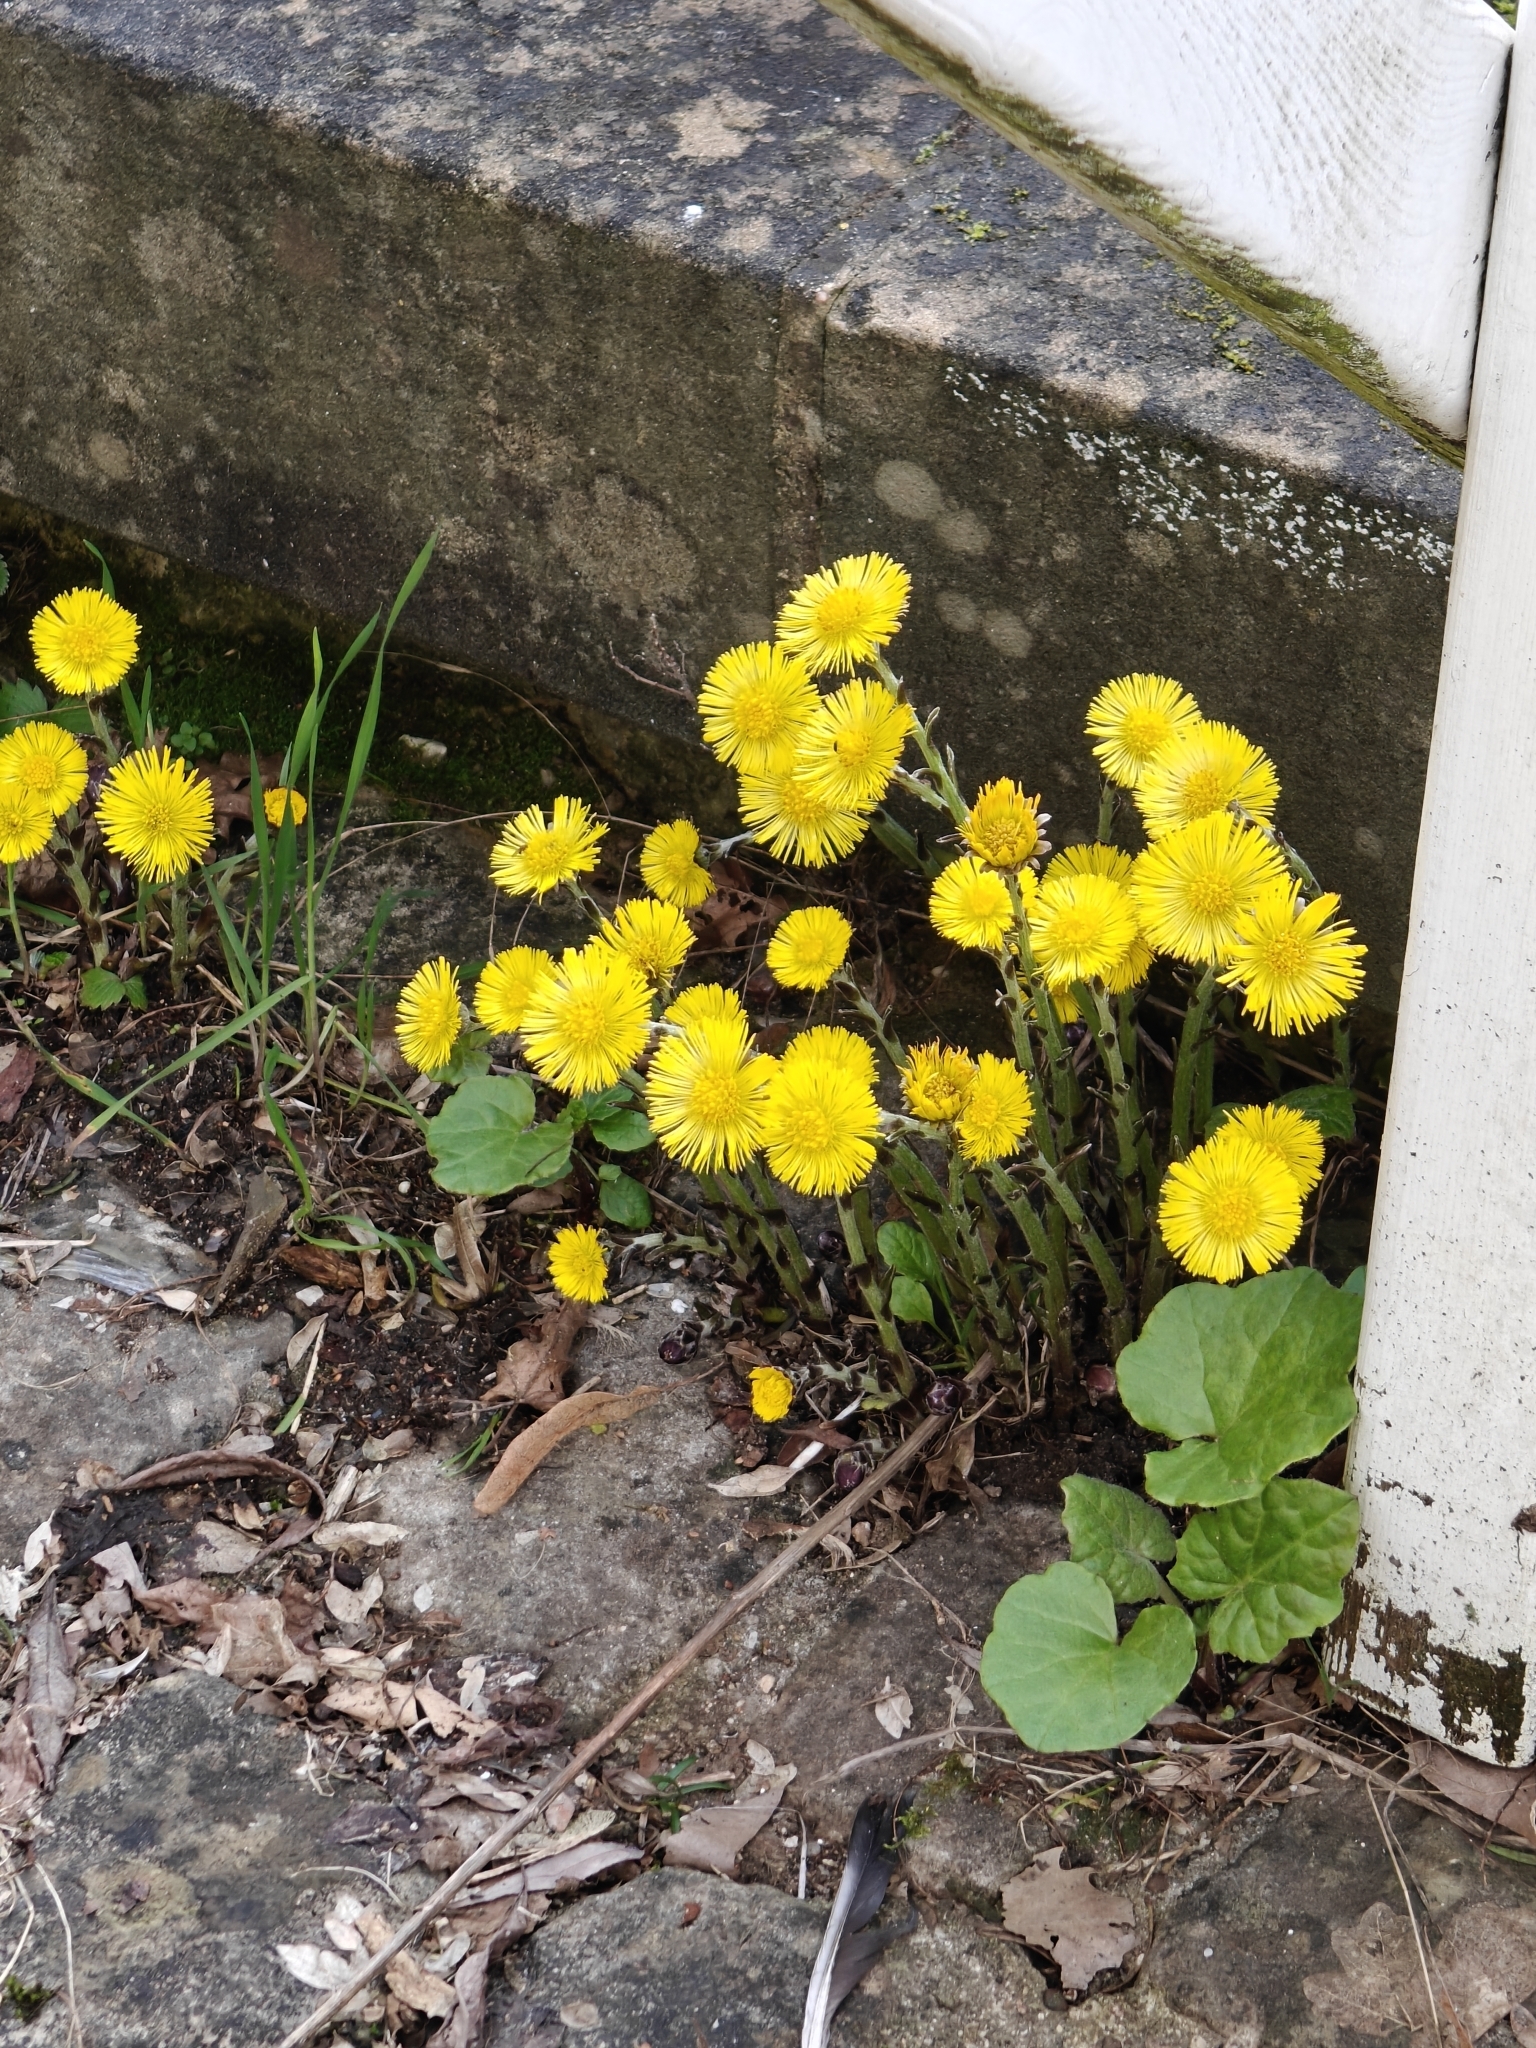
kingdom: Plantae
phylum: Tracheophyta
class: Magnoliopsida
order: Asterales
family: Asteraceae
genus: Tussilago
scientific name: Tussilago farfara
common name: Coltsfoot
